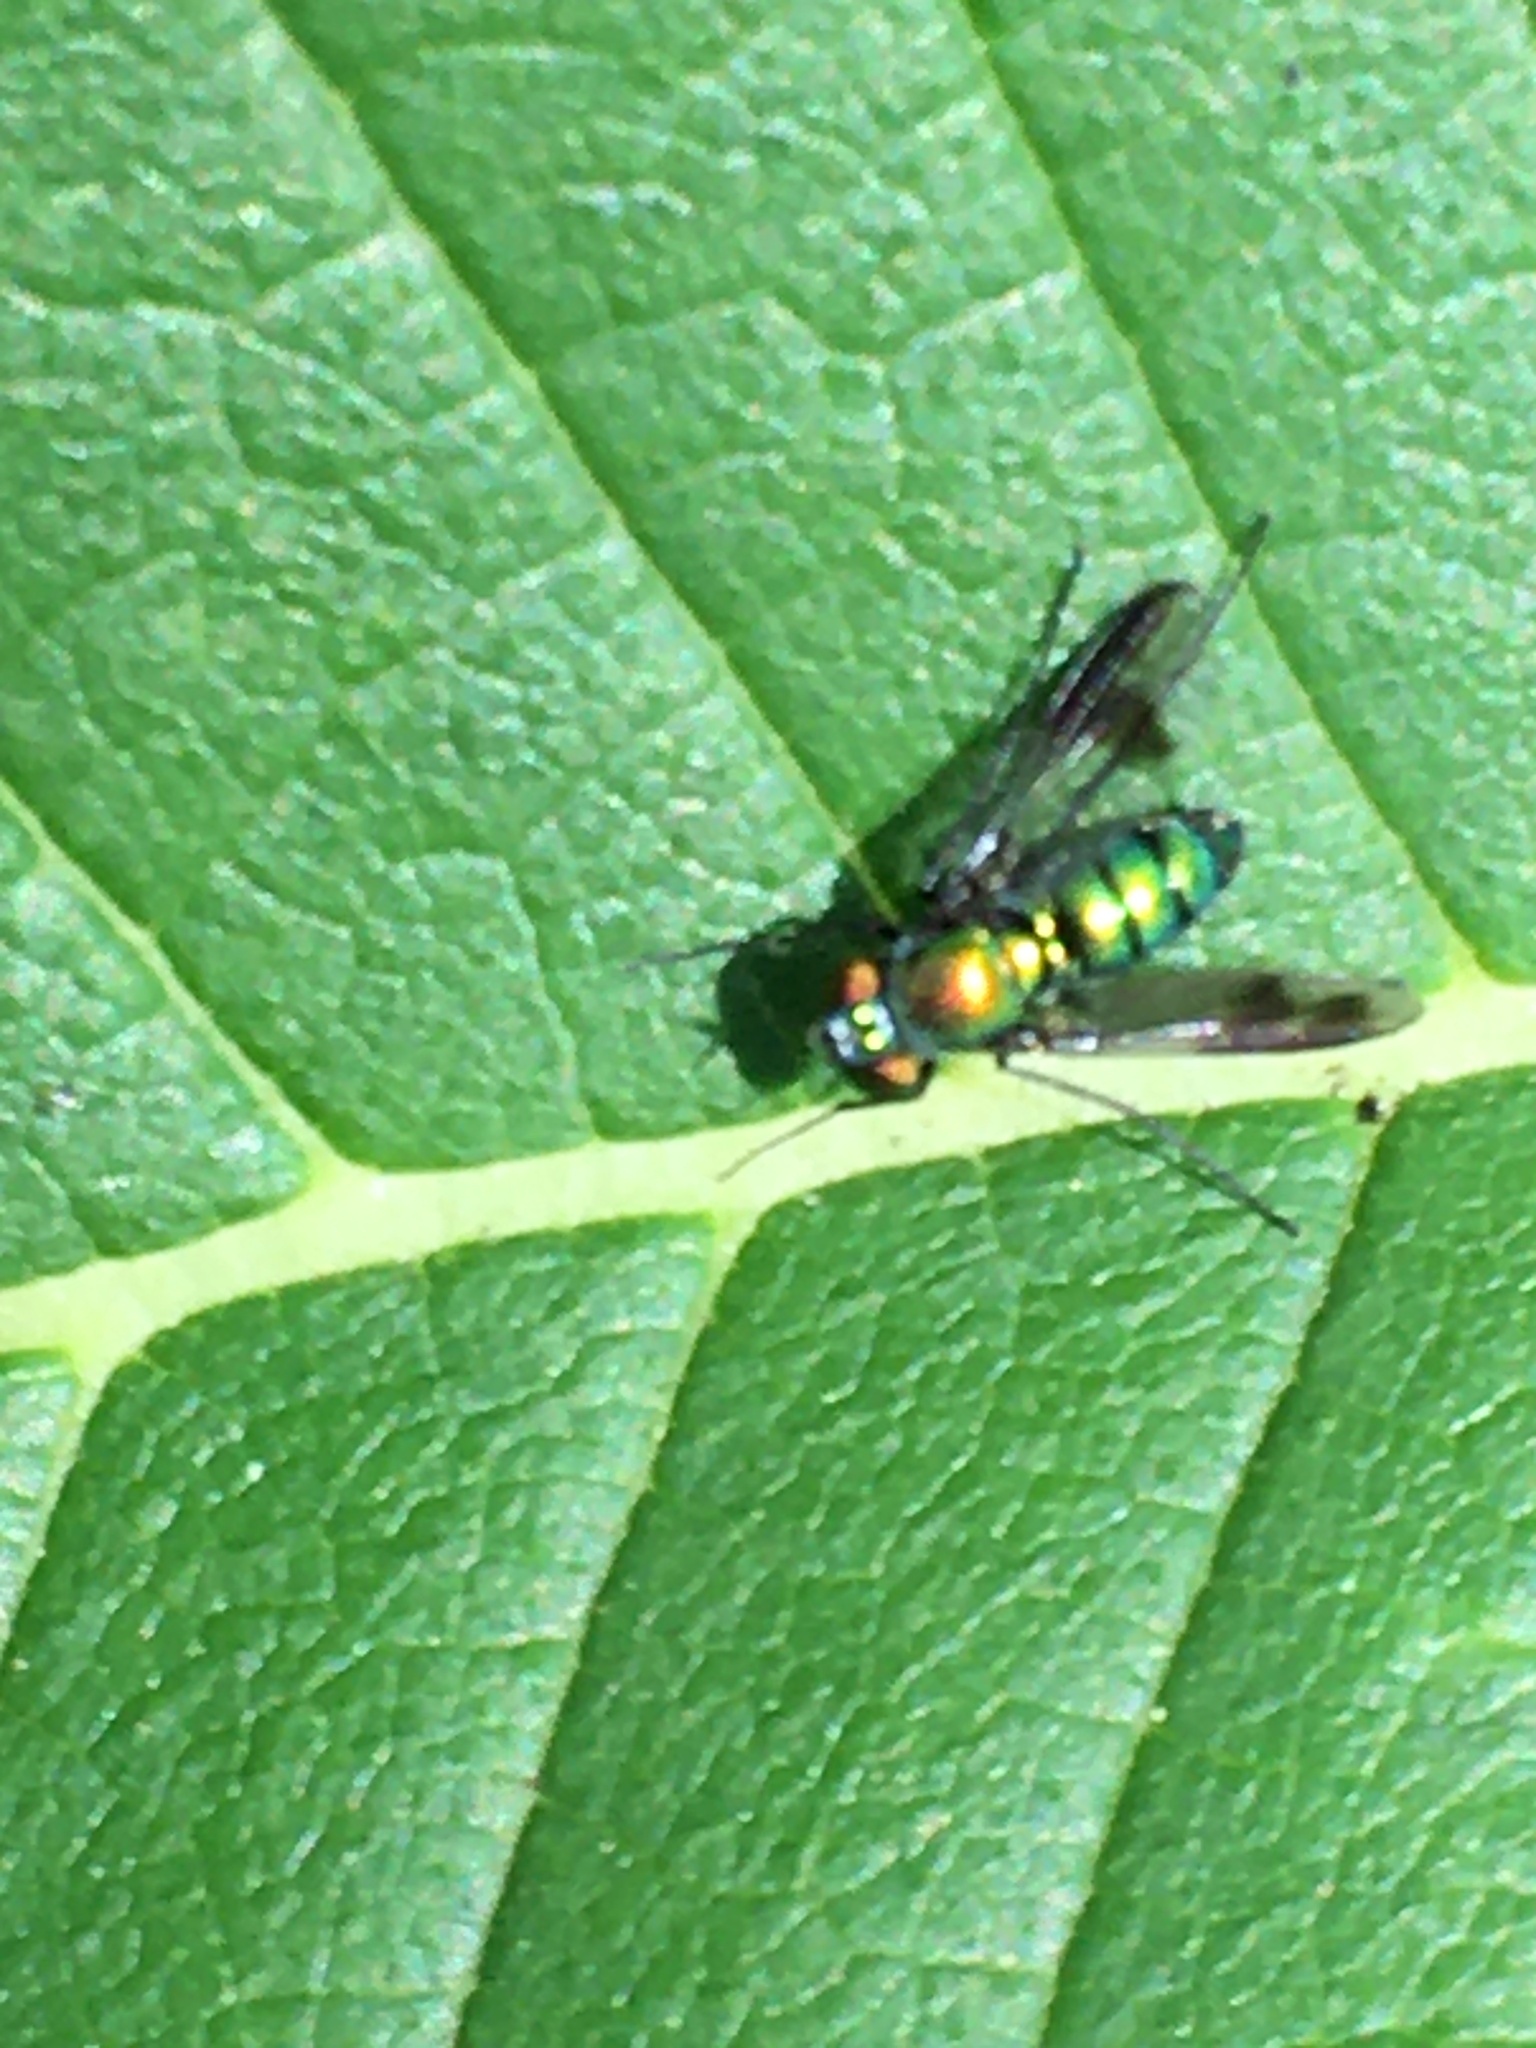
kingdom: Animalia
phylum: Arthropoda
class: Insecta
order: Diptera
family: Dolichopodidae
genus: Condylostylus
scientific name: Condylostylus patibulatus
